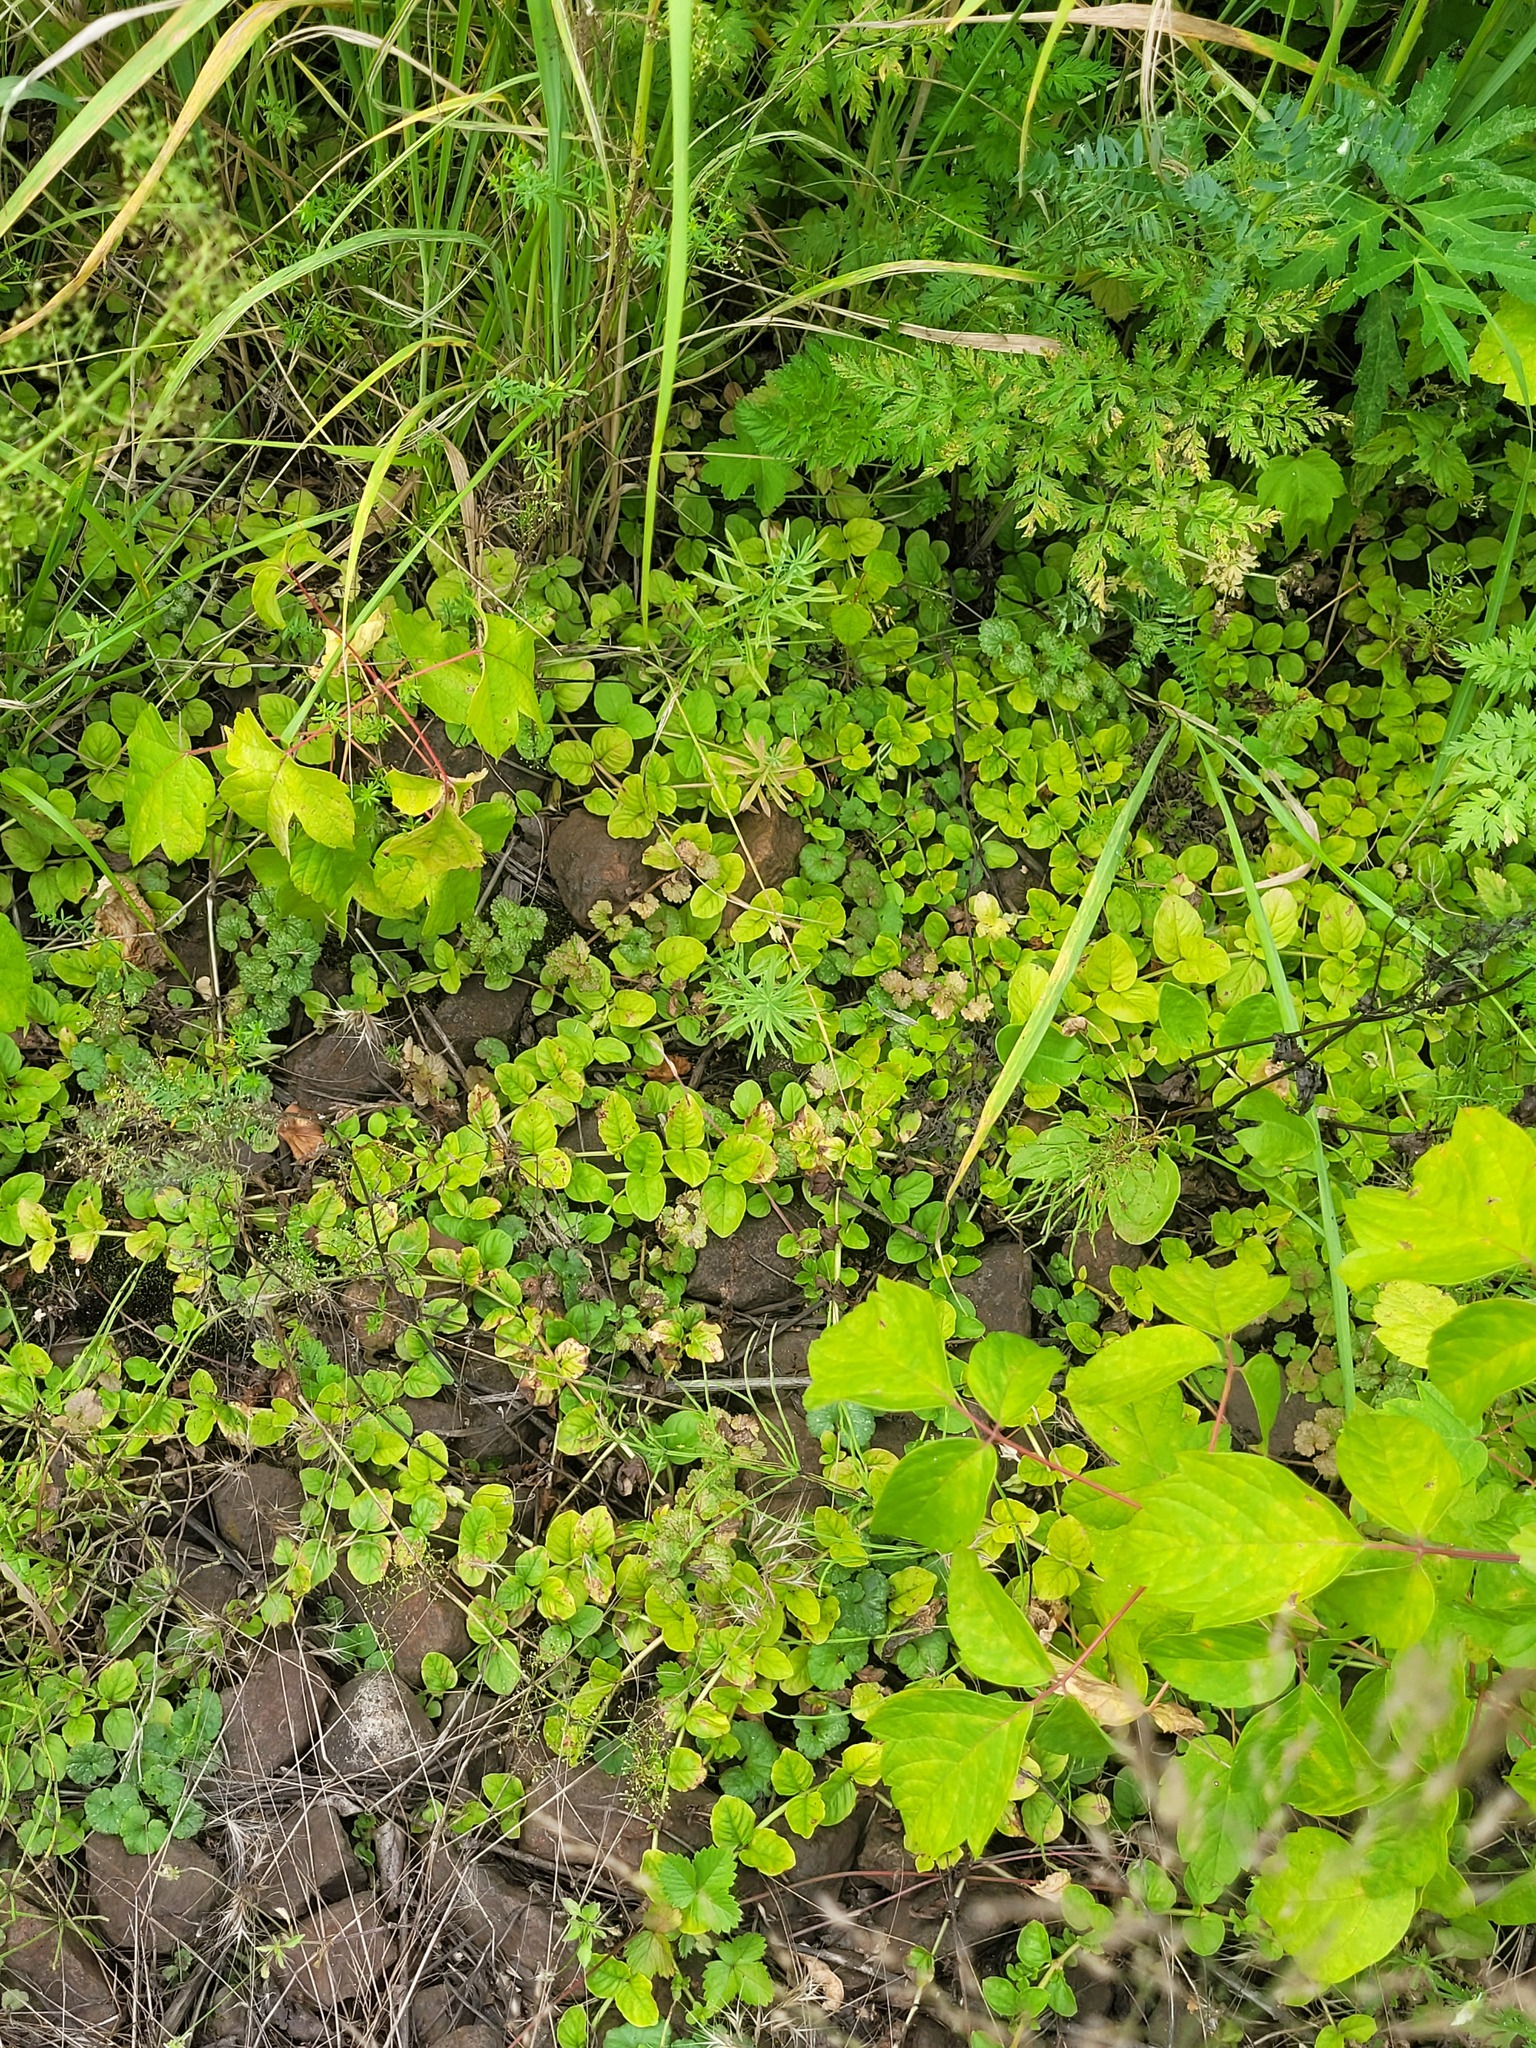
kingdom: Plantae
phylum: Tracheophyta
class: Magnoliopsida
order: Ericales
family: Primulaceae
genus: Lysimachia
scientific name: Lysimachia nummularia
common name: Moneywort
